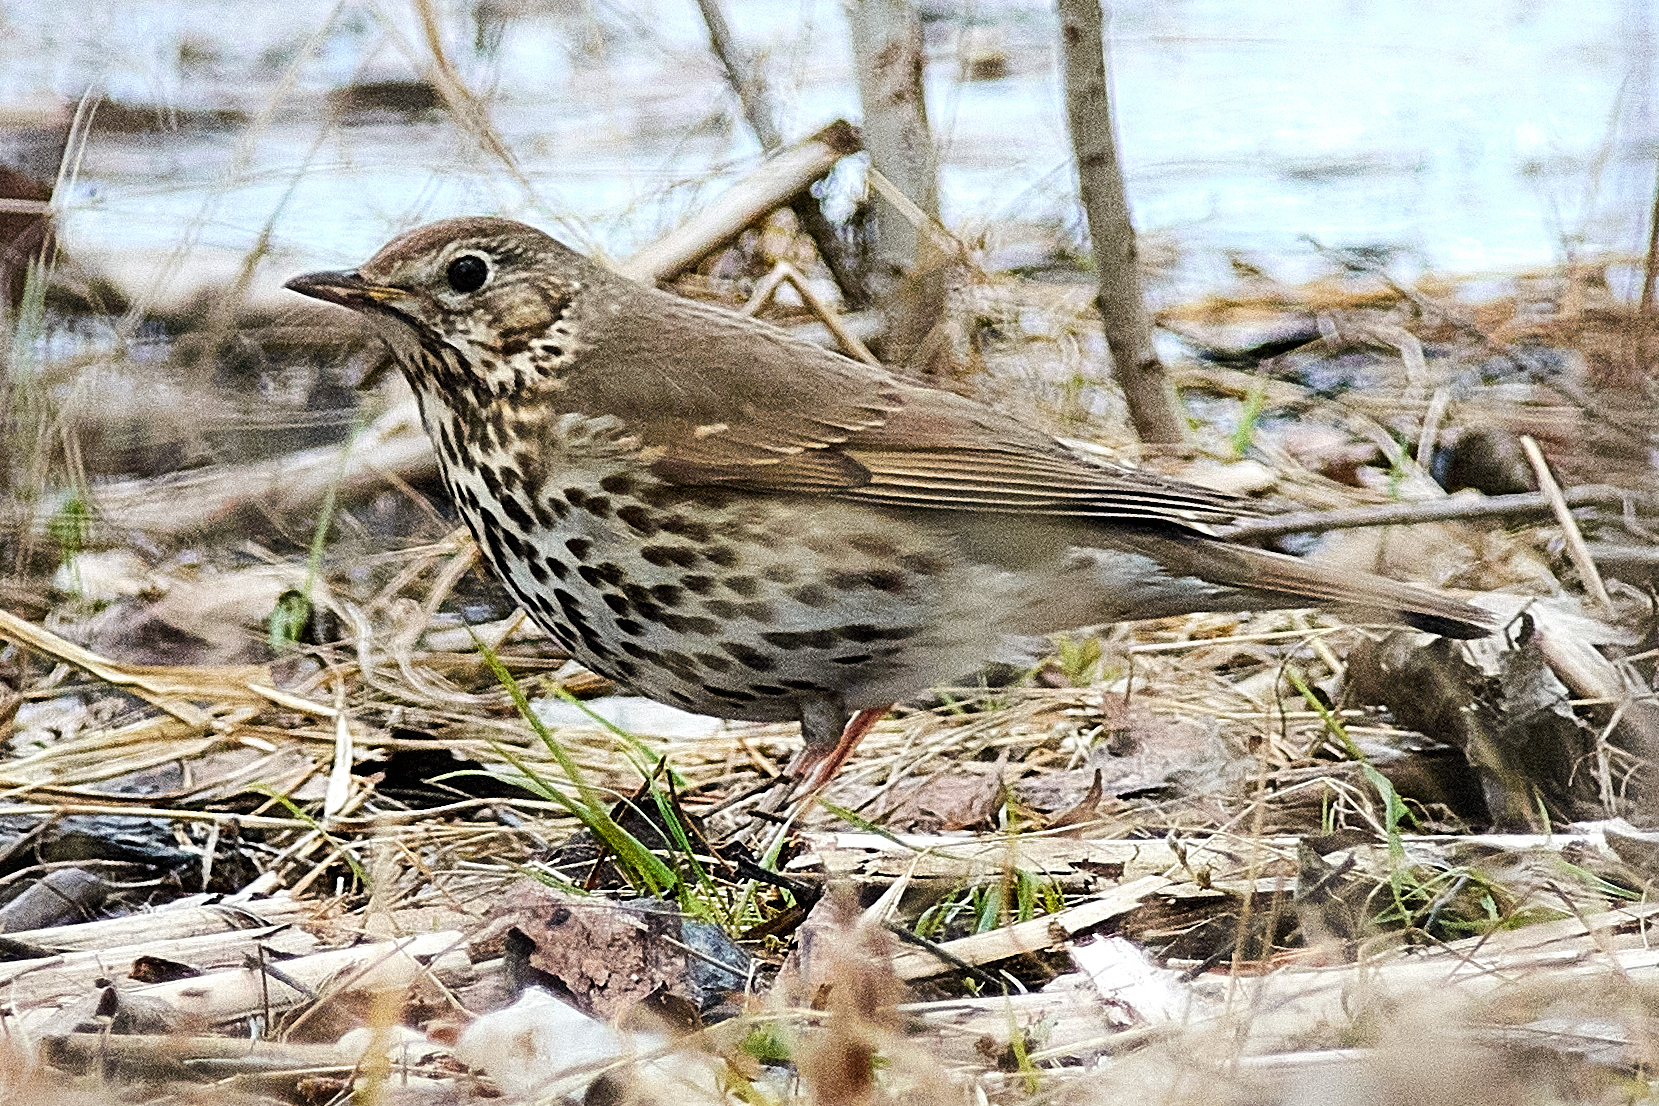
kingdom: Animalia
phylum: Chordata
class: Aves
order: Passeriformes
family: Turdidae
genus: Turdus
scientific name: Turdus philomelos
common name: Song thrush
